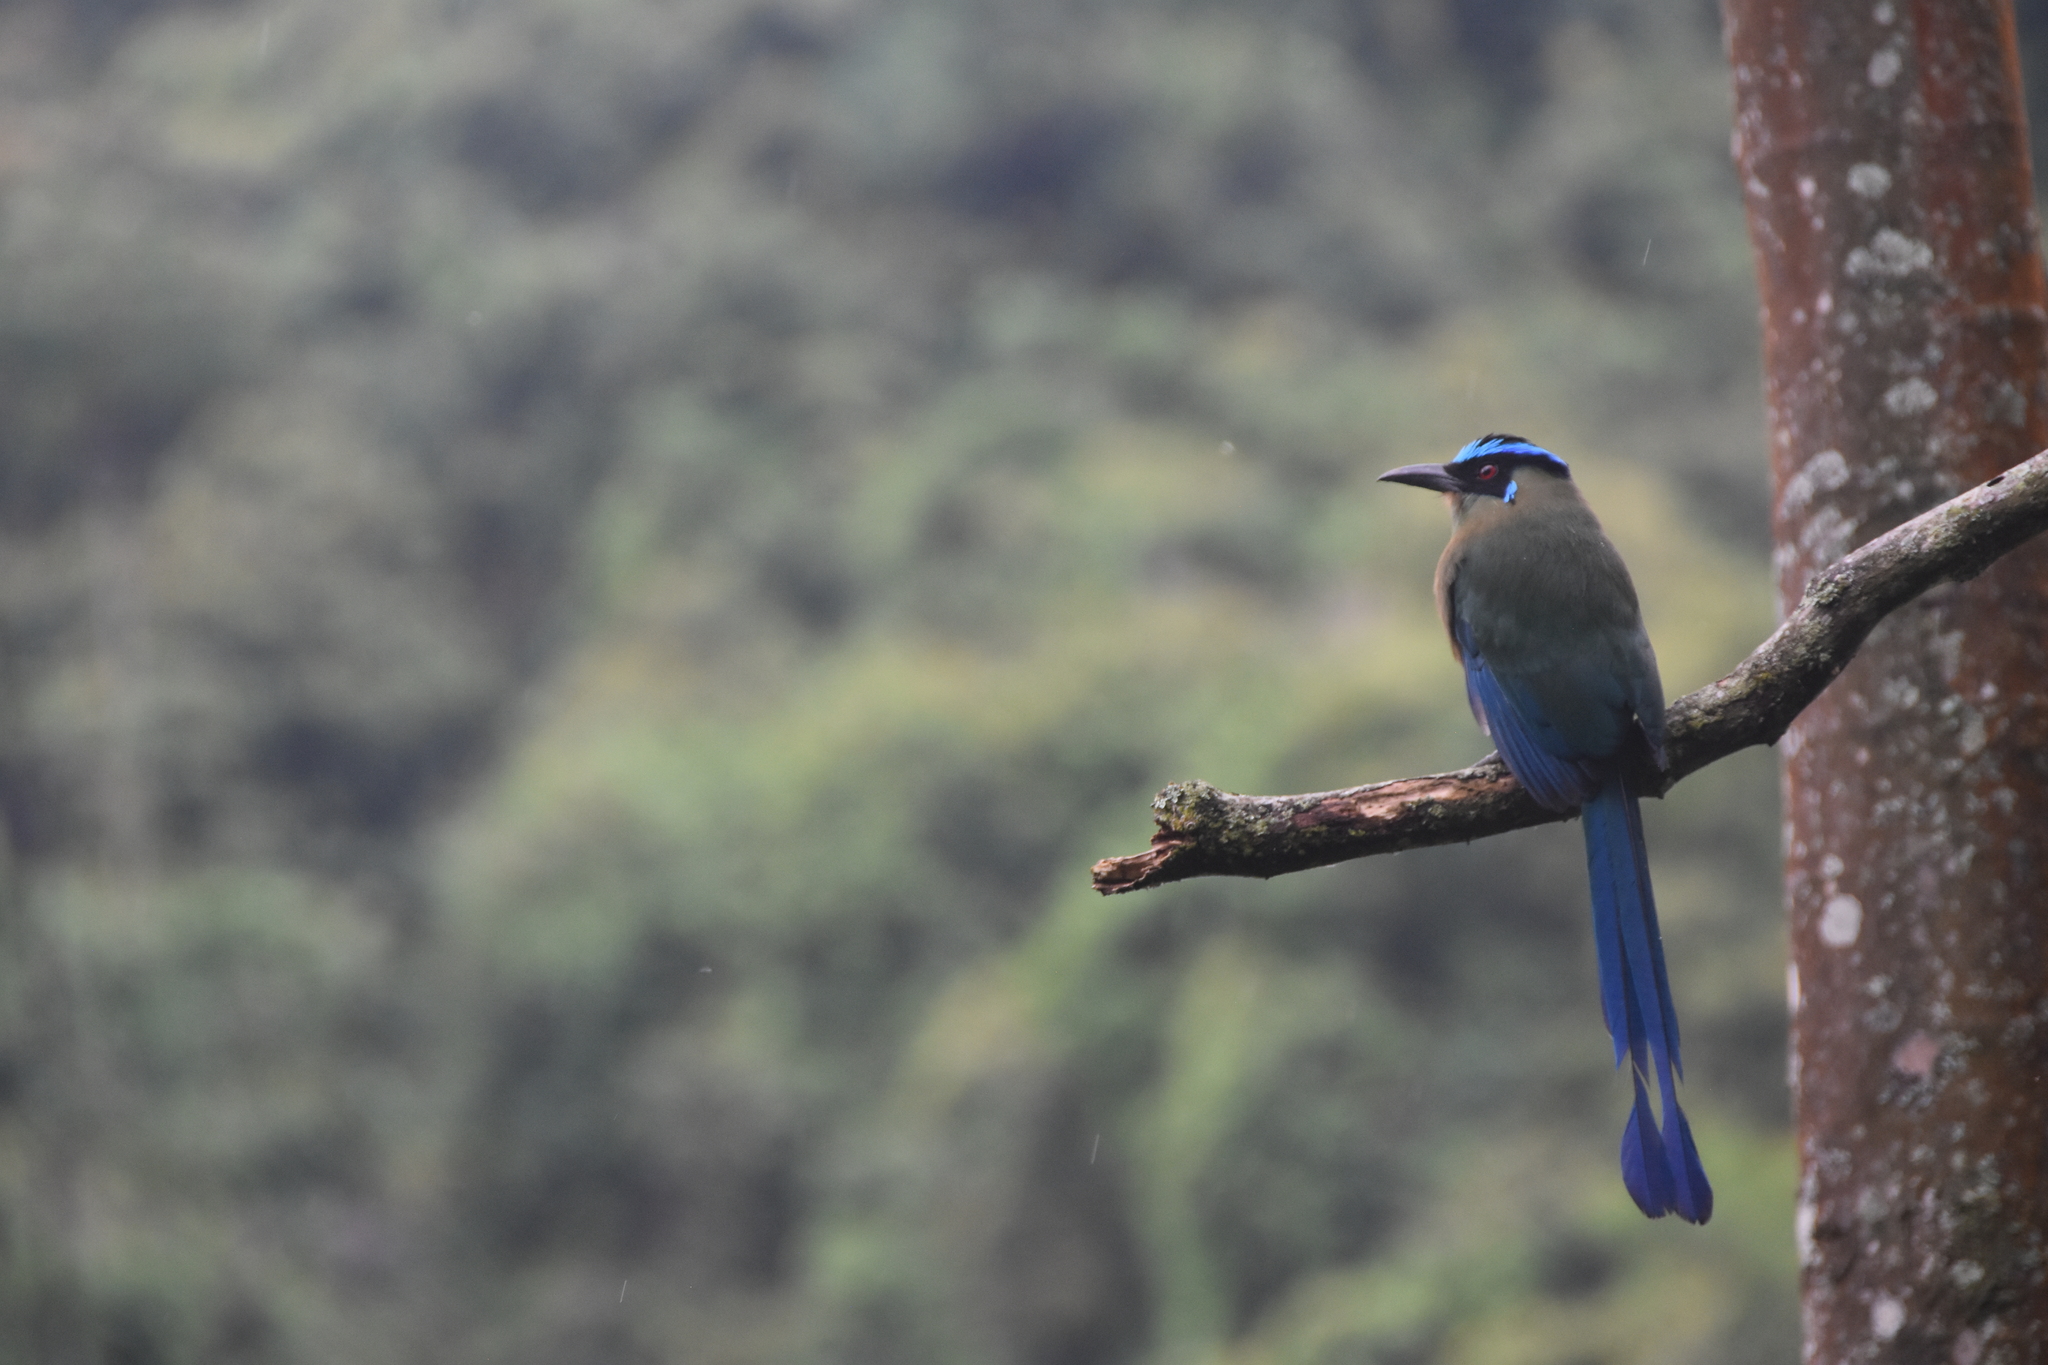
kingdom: Animalia
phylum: Chordata
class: Aves
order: Coraciiformes
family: Momotidae
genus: Momotus
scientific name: Momotus aequatorialis
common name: Andean motmot
